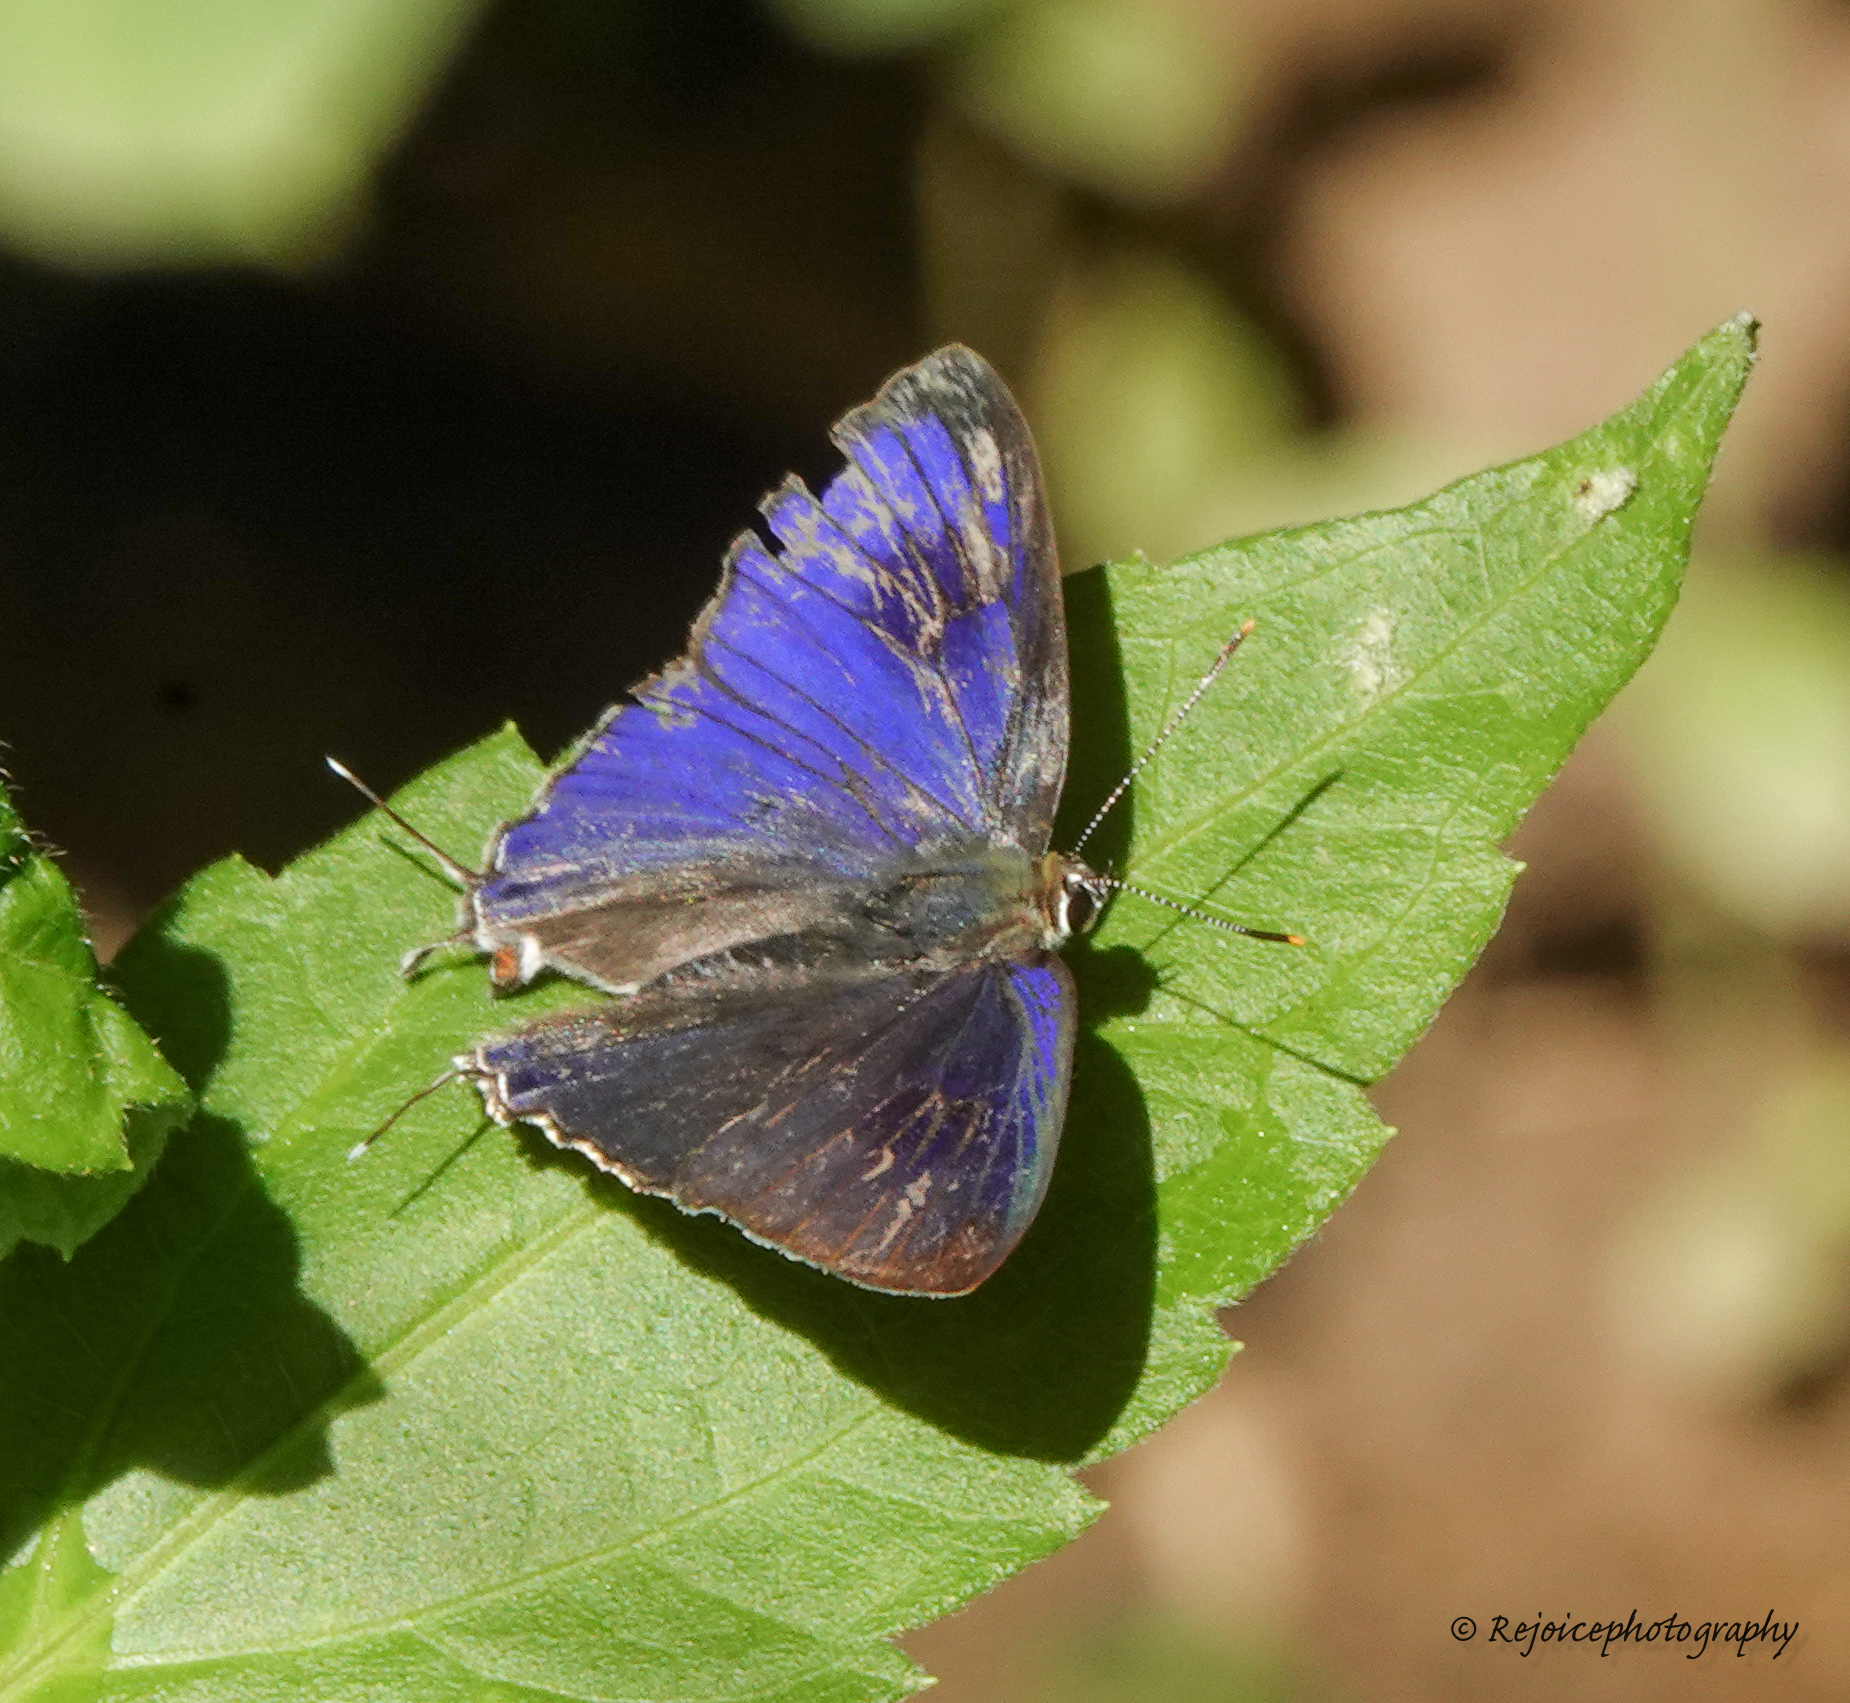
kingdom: Animalia
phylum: Arthropoda
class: Insecta
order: Lepidoptera
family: Lycaenidae
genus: Hypolycaena
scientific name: Hypolycaena erylus
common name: Common tit
